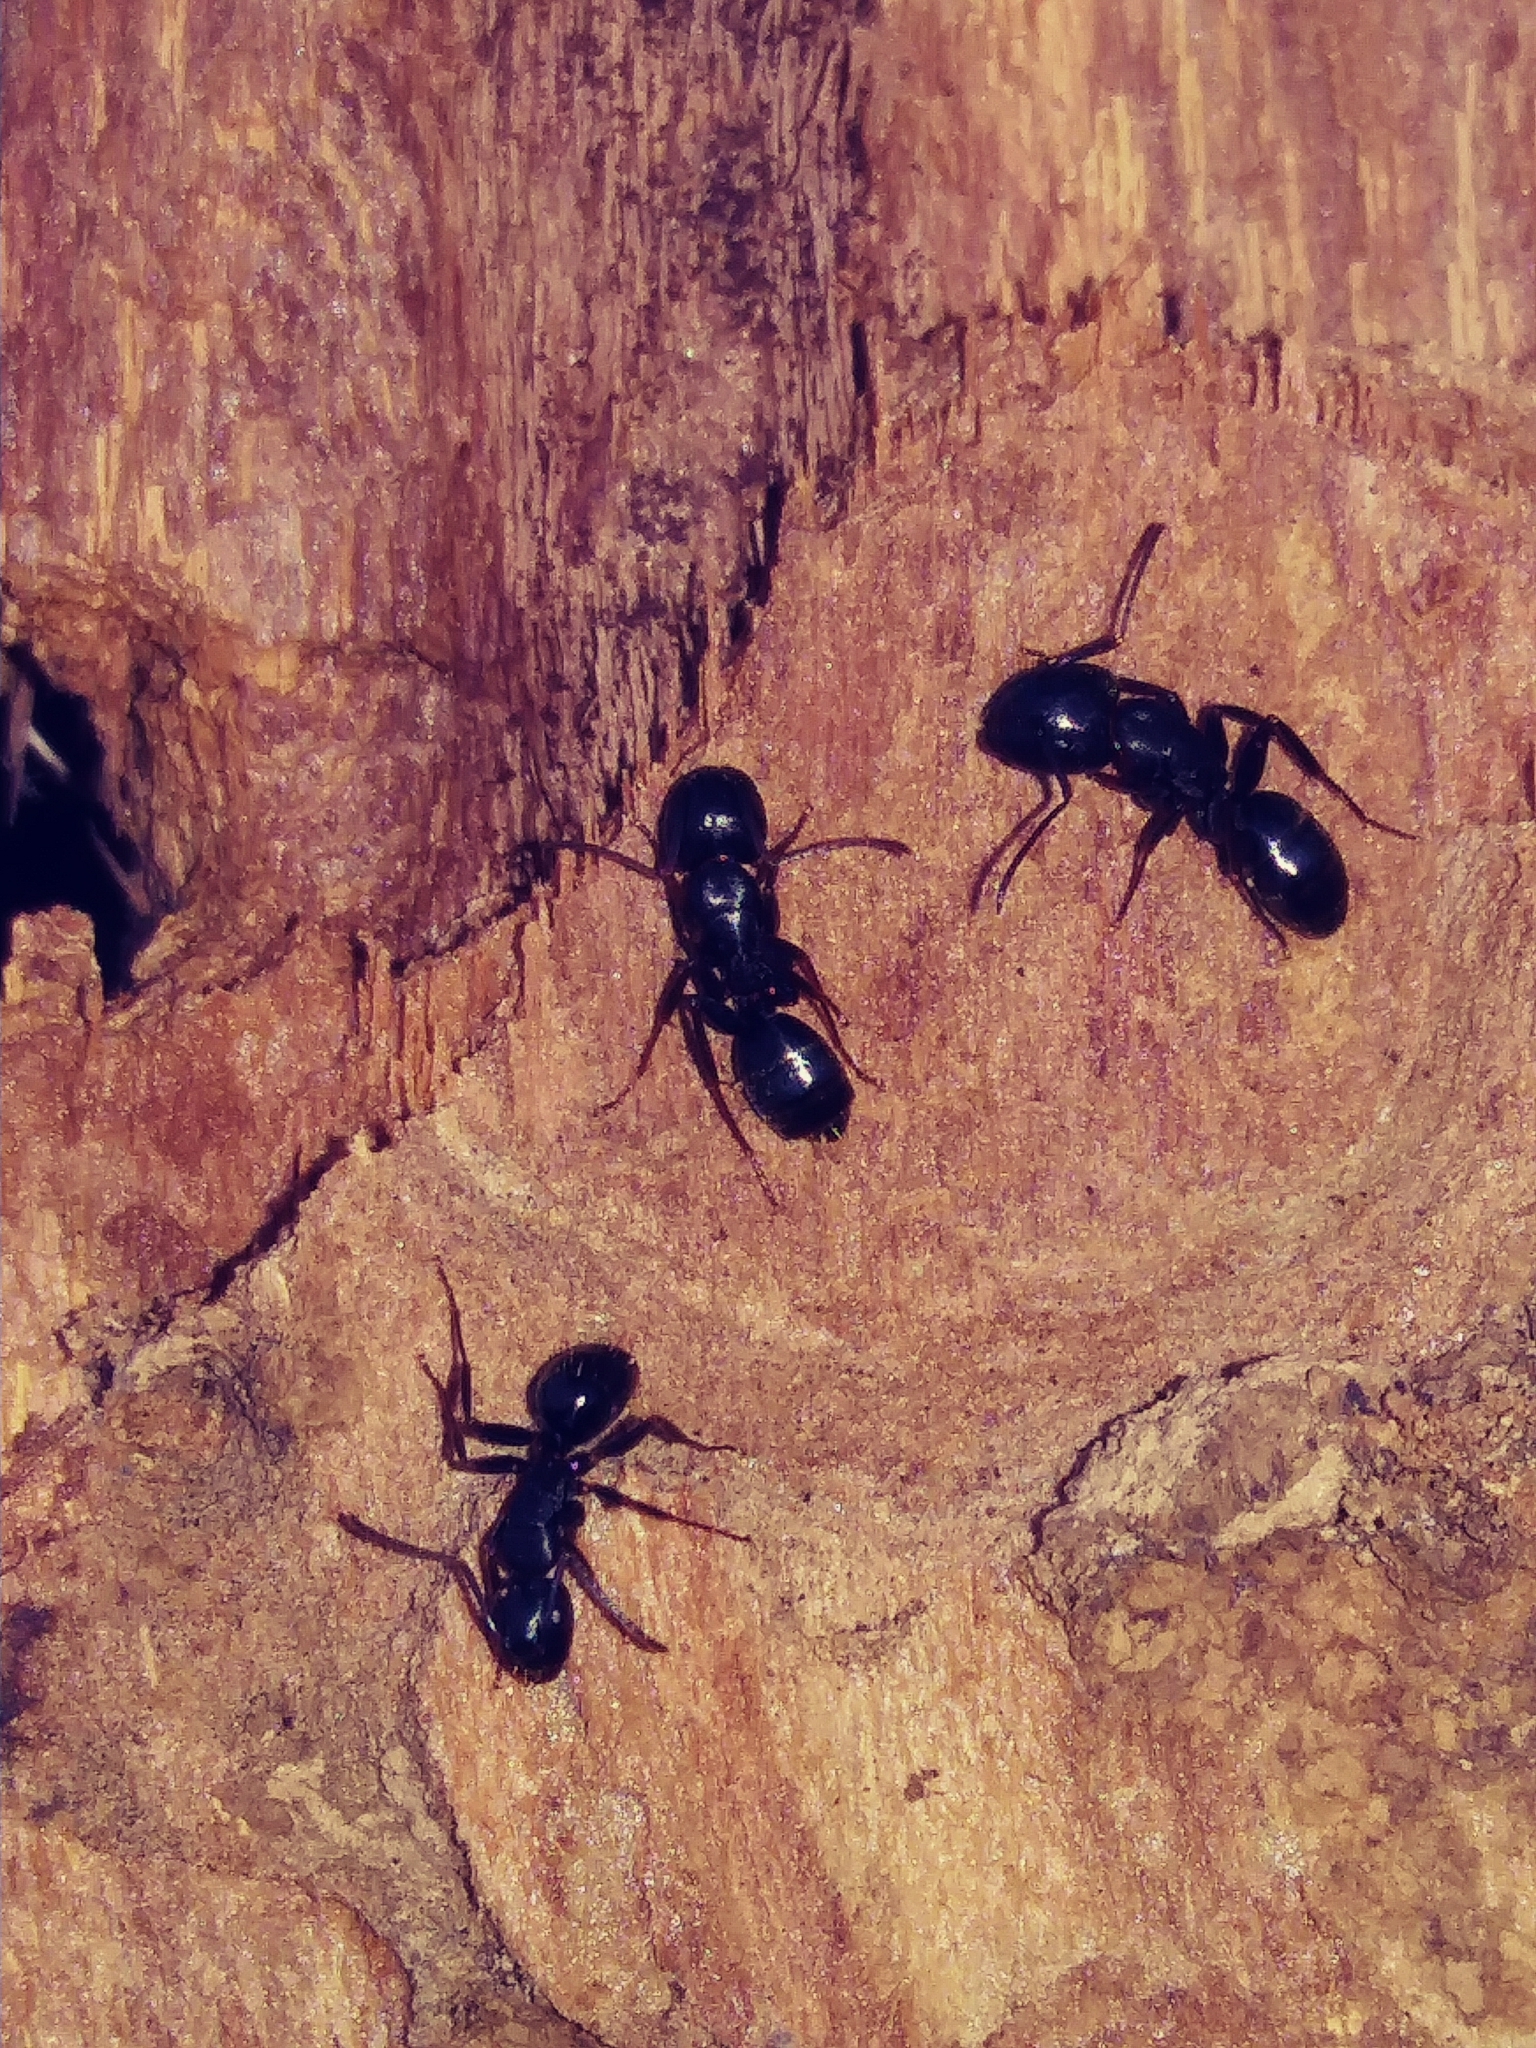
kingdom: Animalia
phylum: Arthropoda
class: Insecta
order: Hymenoptera
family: Formicidae
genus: Camponotus
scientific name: Camponotus pennsylvanicus
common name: Black carpenter ant
